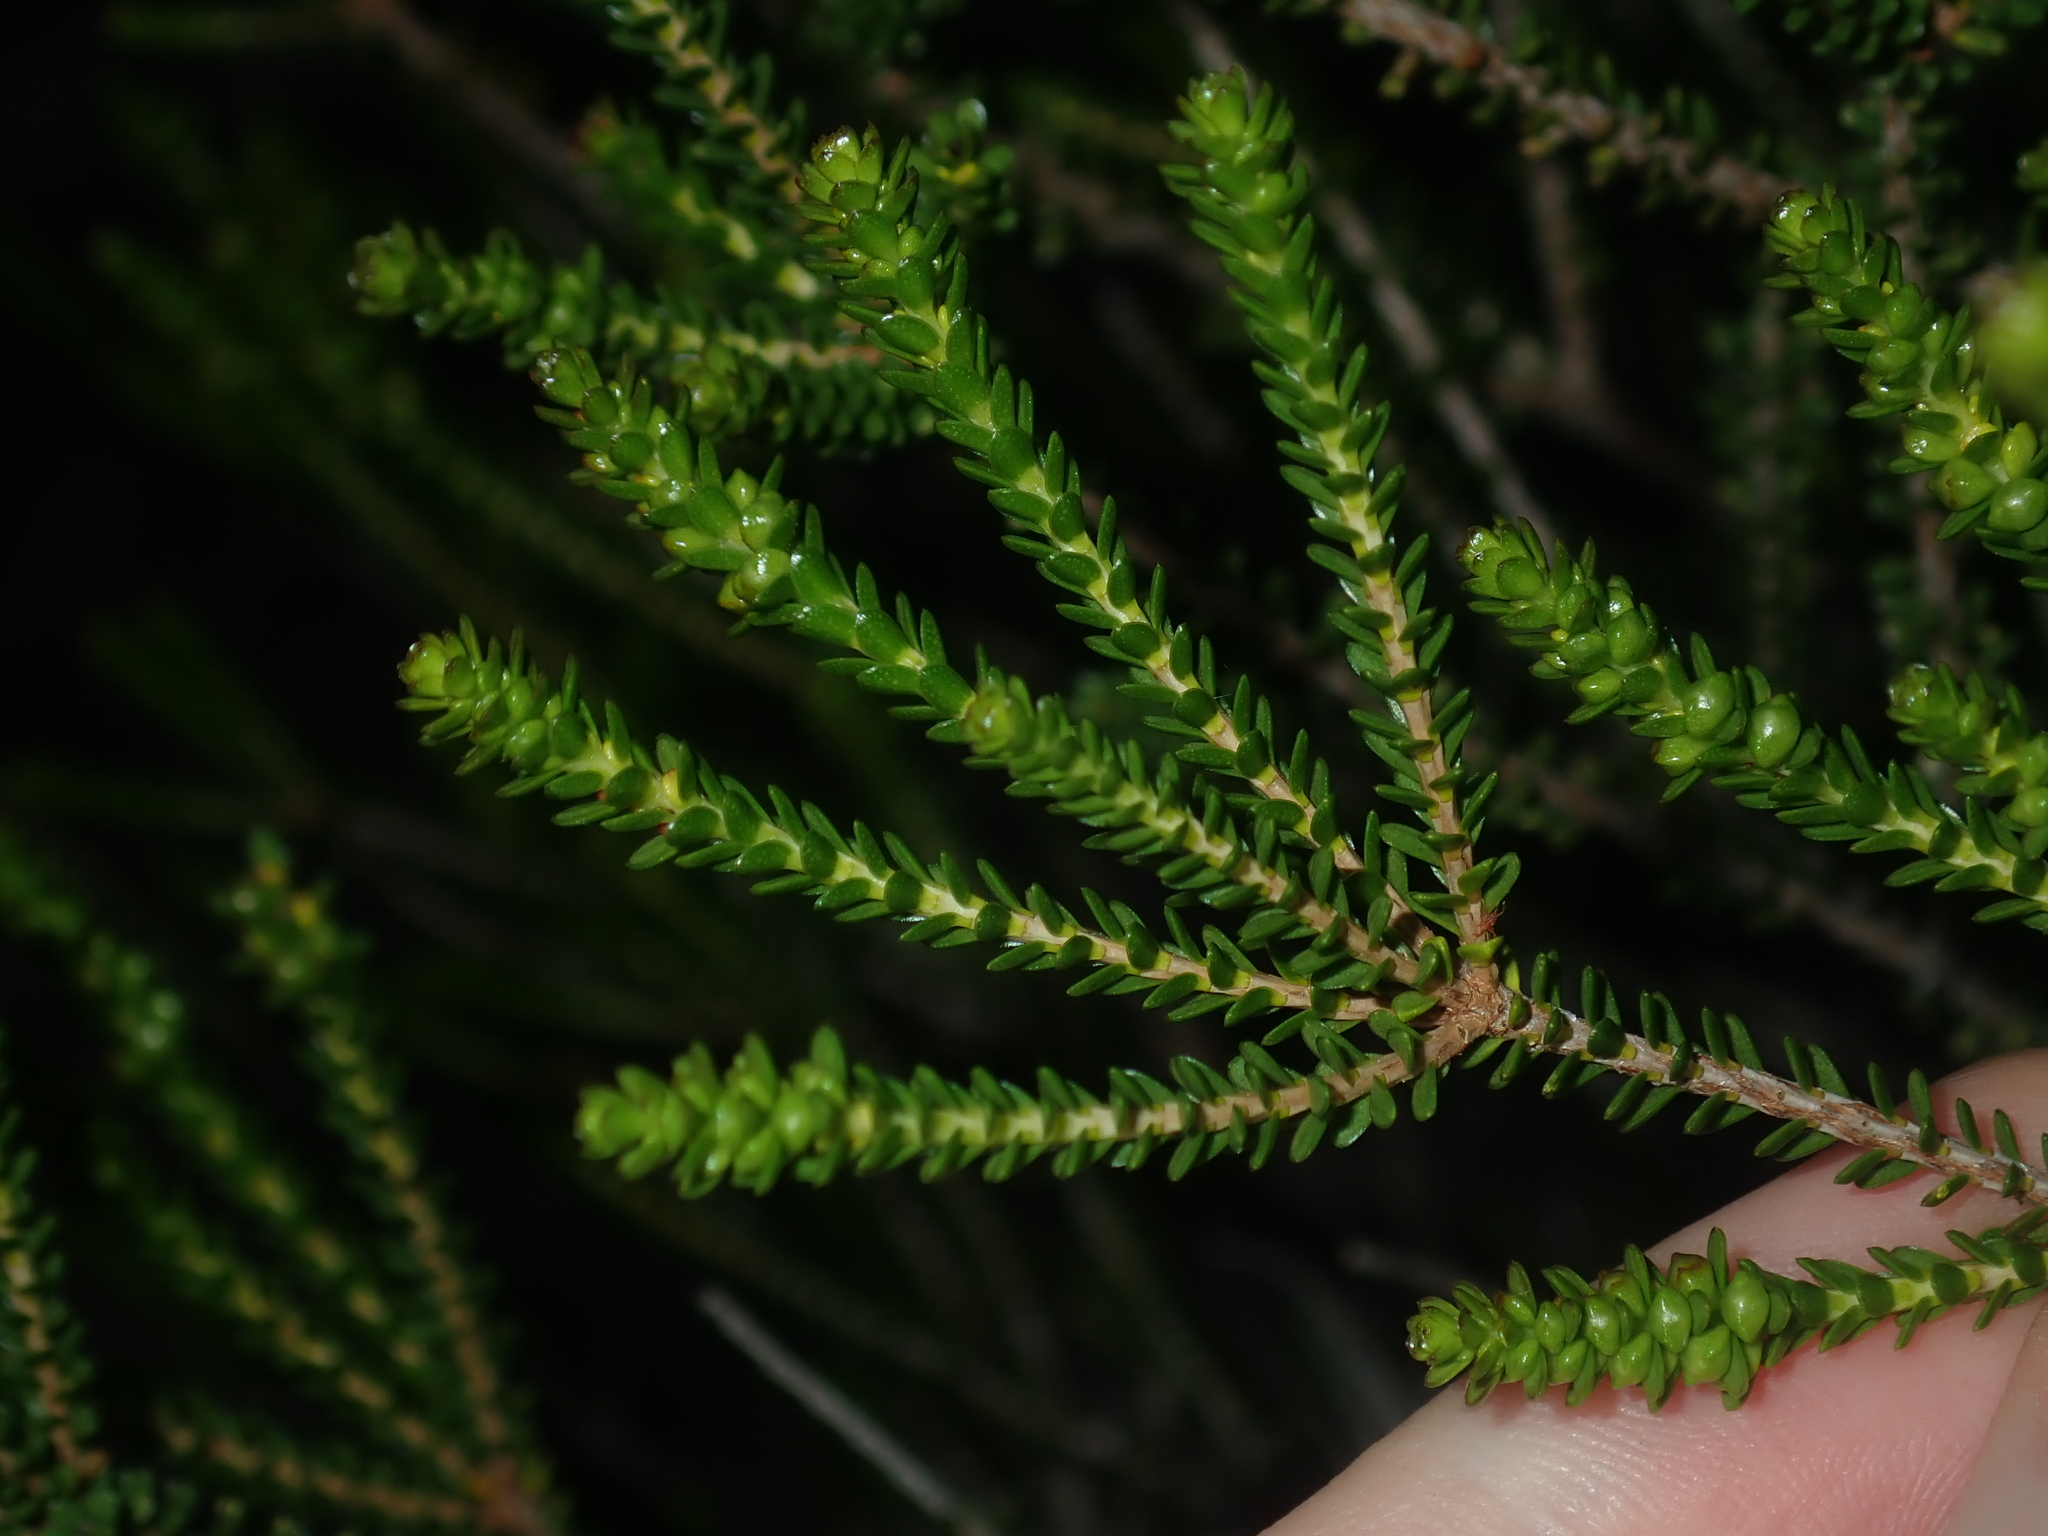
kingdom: Plantae
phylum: Tracheophyta
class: Magnoliopsida
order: Myrtales
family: Myrtaceae
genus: Homalocalyx
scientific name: Homalocalyx aureus
